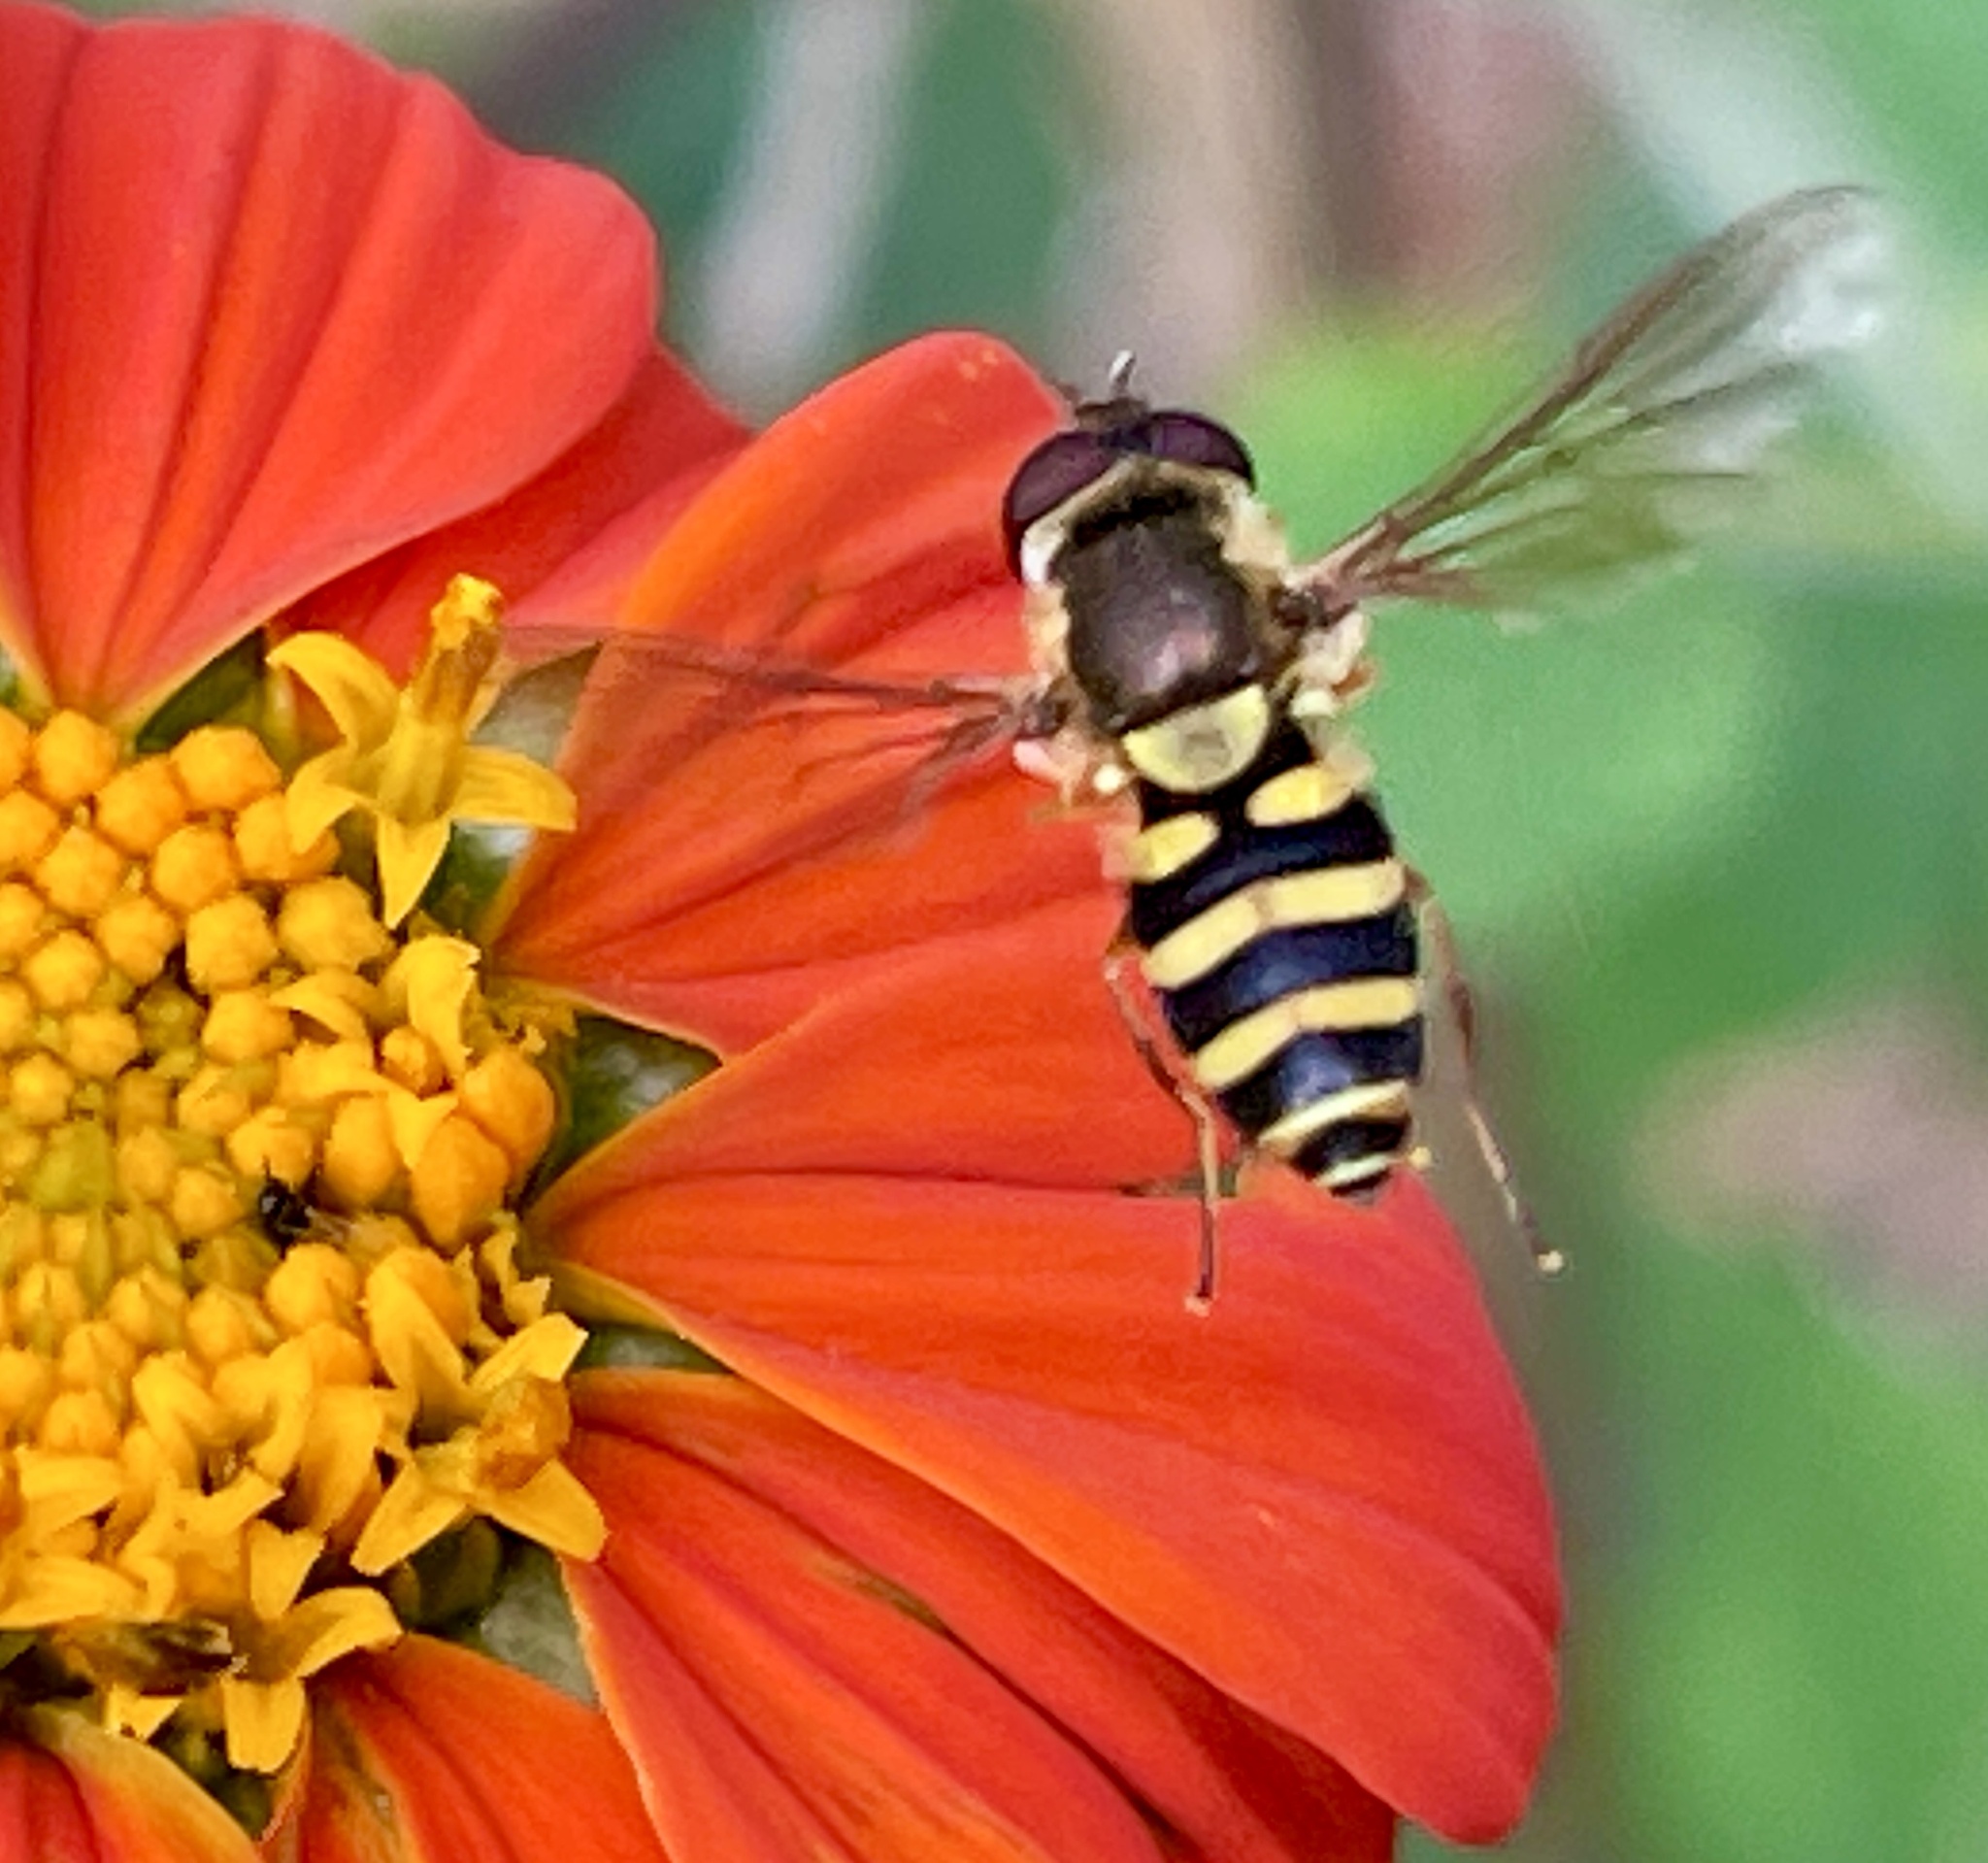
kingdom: Animalia
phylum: Arthropoda
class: Insecta
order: Diptera
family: Syrphidae
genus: Syrphus
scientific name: Syrphus
